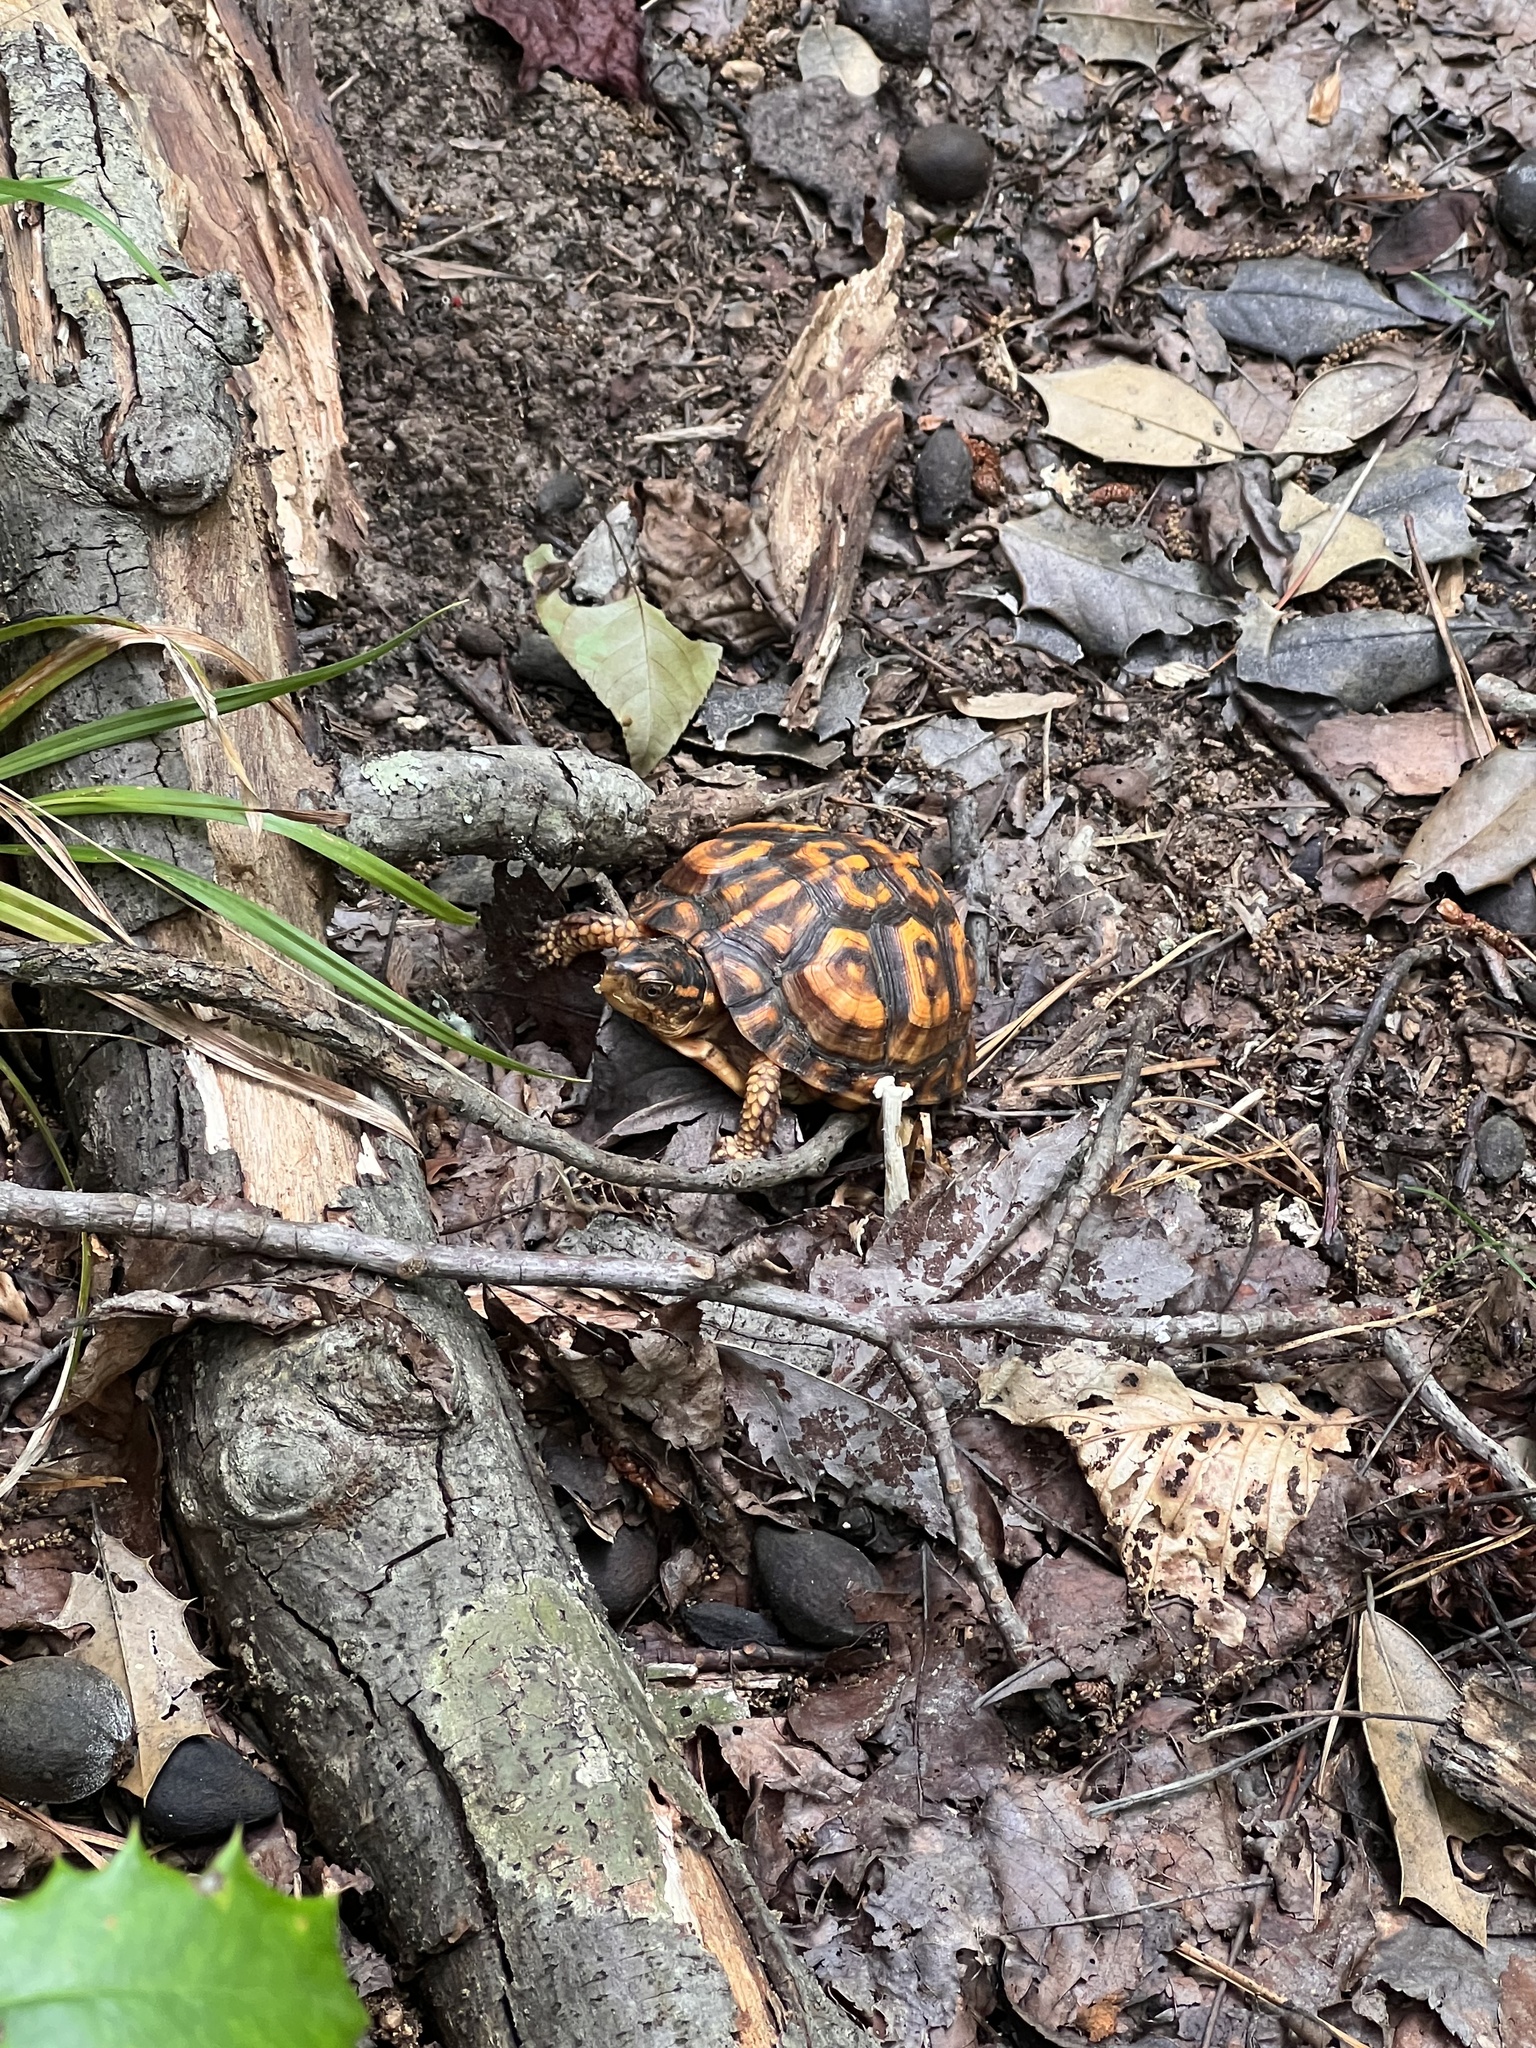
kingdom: Animalia
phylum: Chordata
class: Testudines
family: Emydidae
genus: Terrapene
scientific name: Terrapene carolina
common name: Common box turtle
